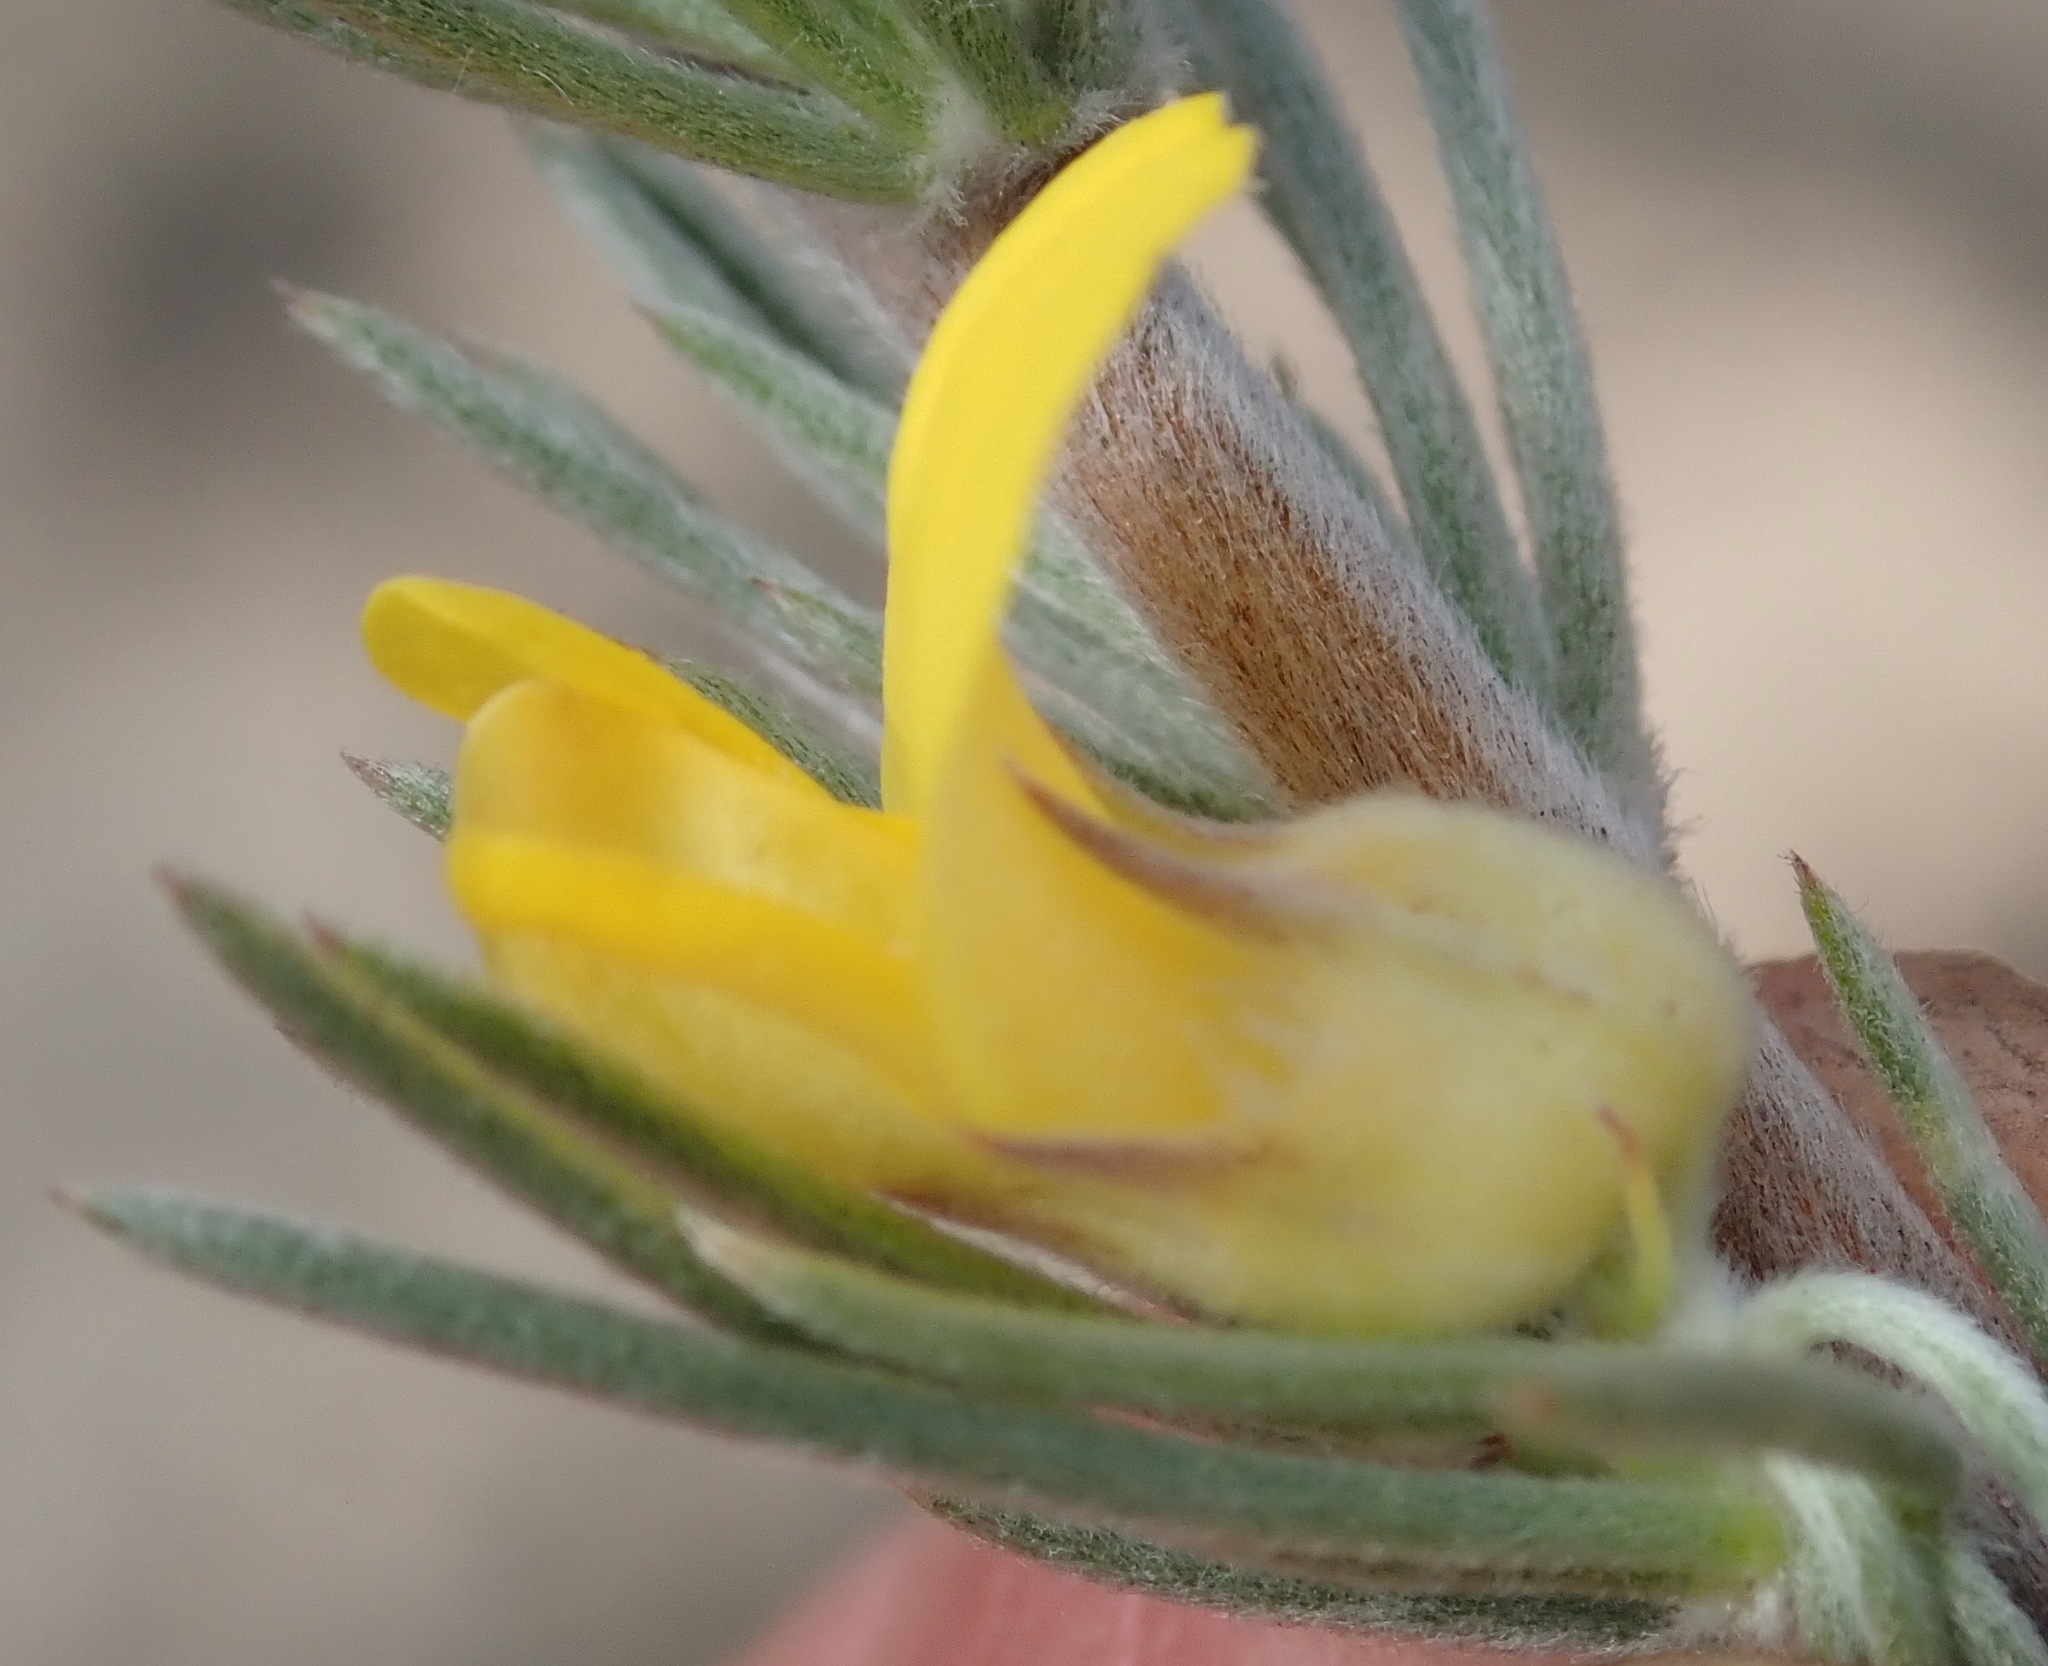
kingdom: Plantae
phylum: Tracheophyta
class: Magnoliopsida
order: Fabales
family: Fabaceae
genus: Aspalathus
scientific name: Aspalathus glabrescens
